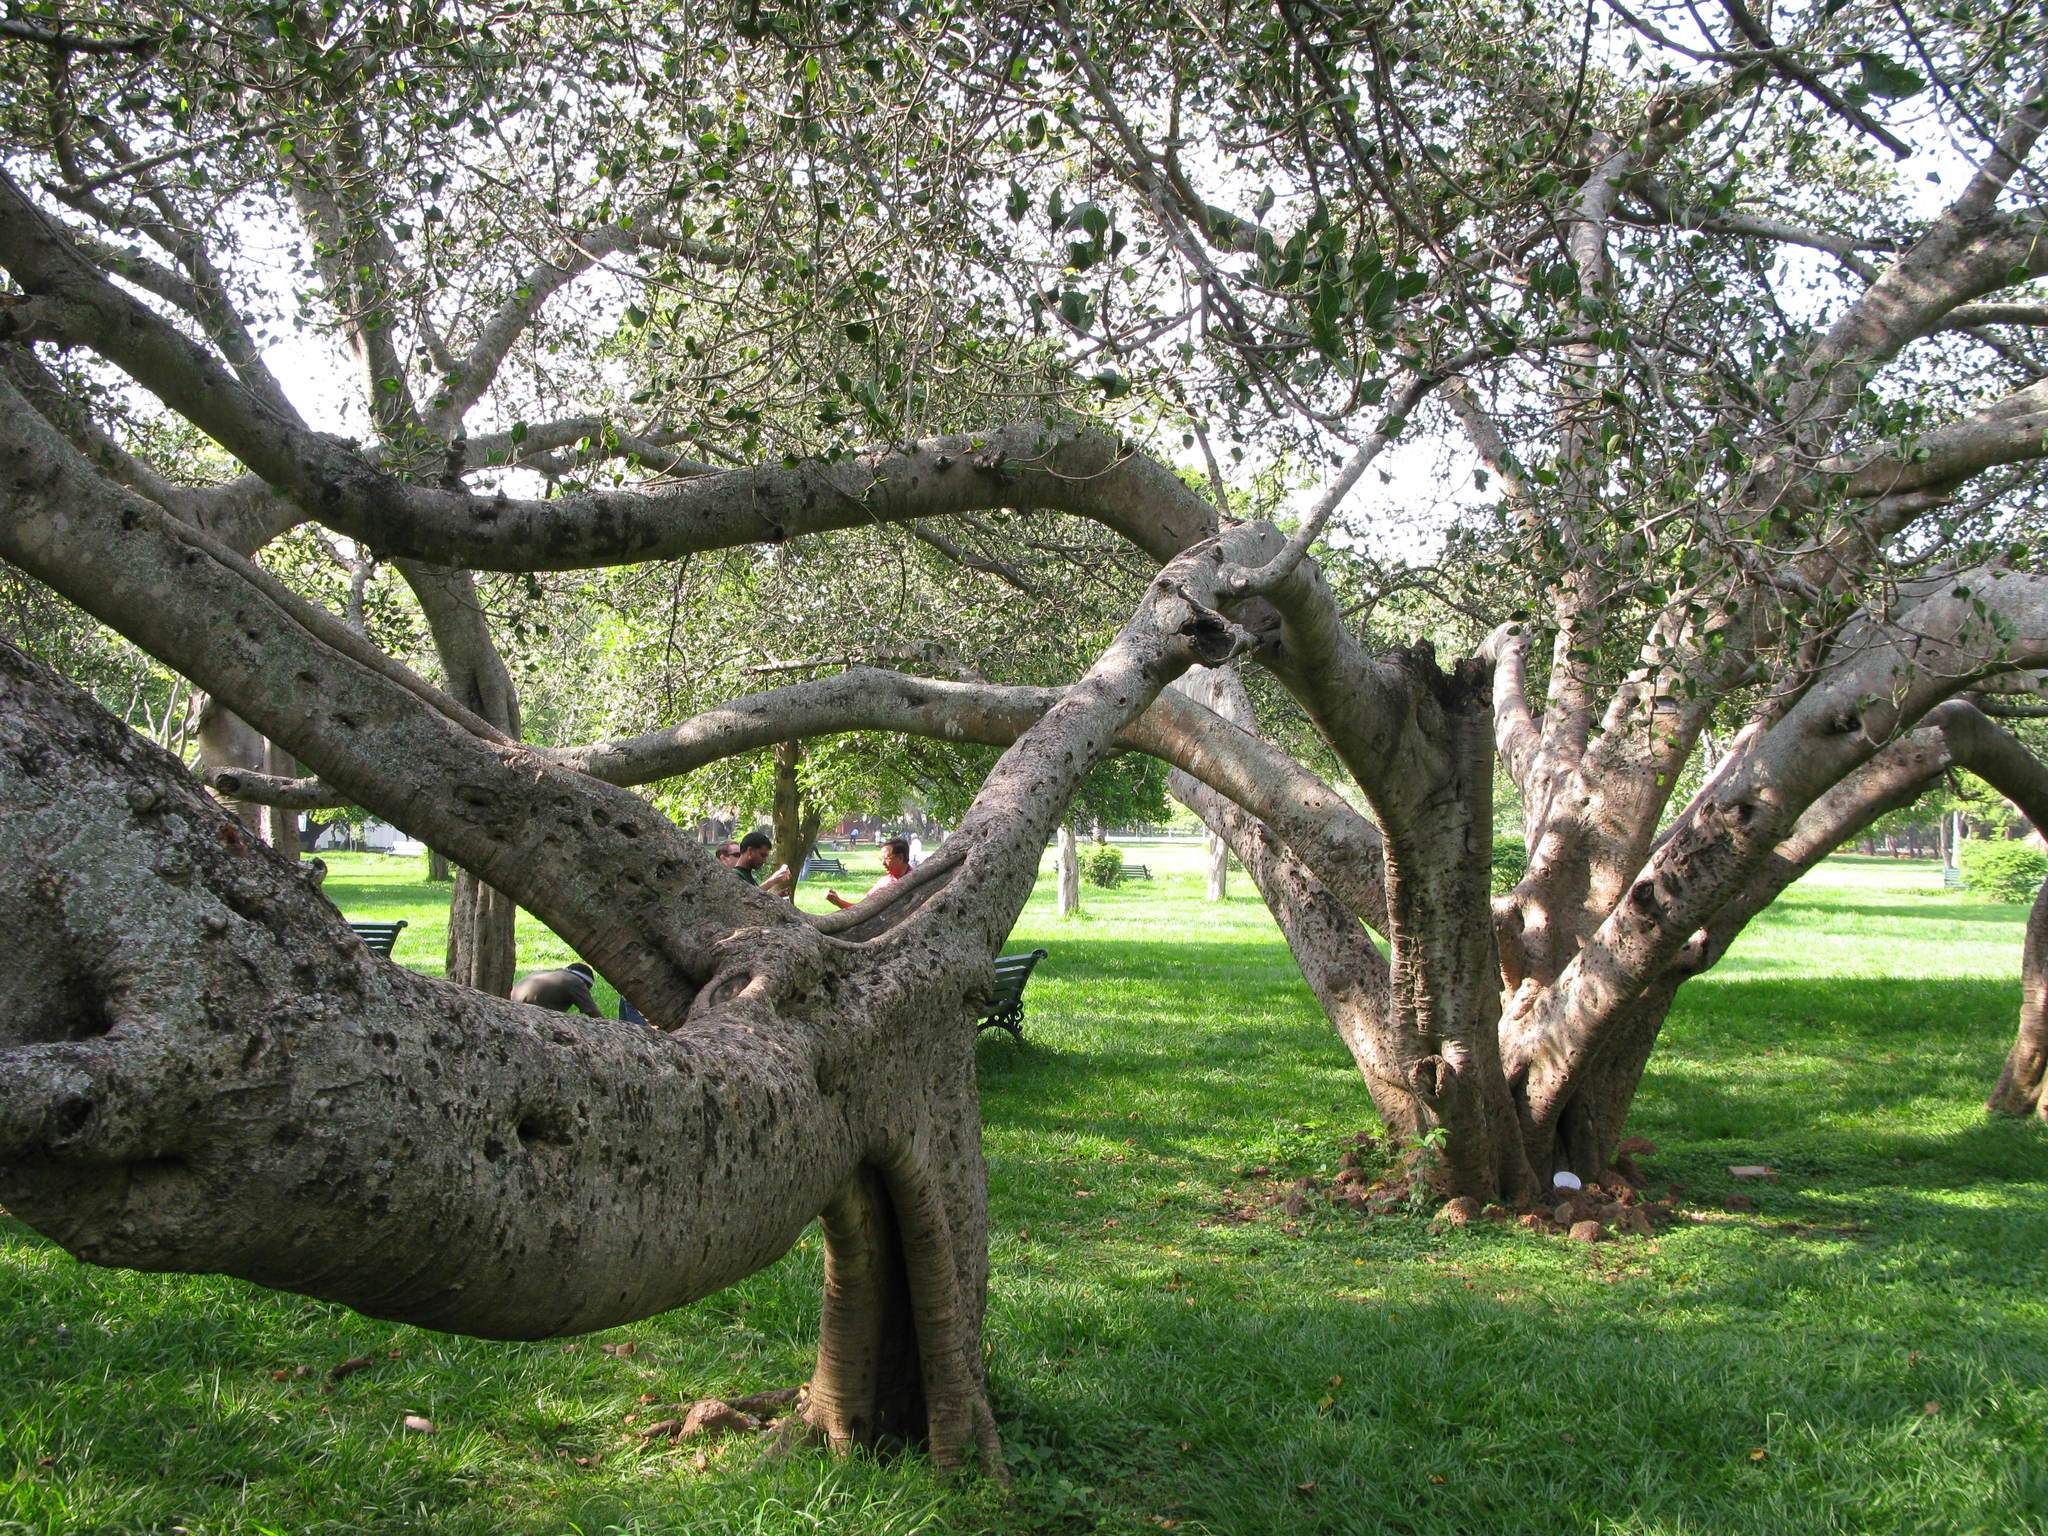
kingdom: Plantae
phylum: Tracheophyta
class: Magnoliopsida
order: Rosales
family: Moraceae
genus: Ficus
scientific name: Ficus krishnae
